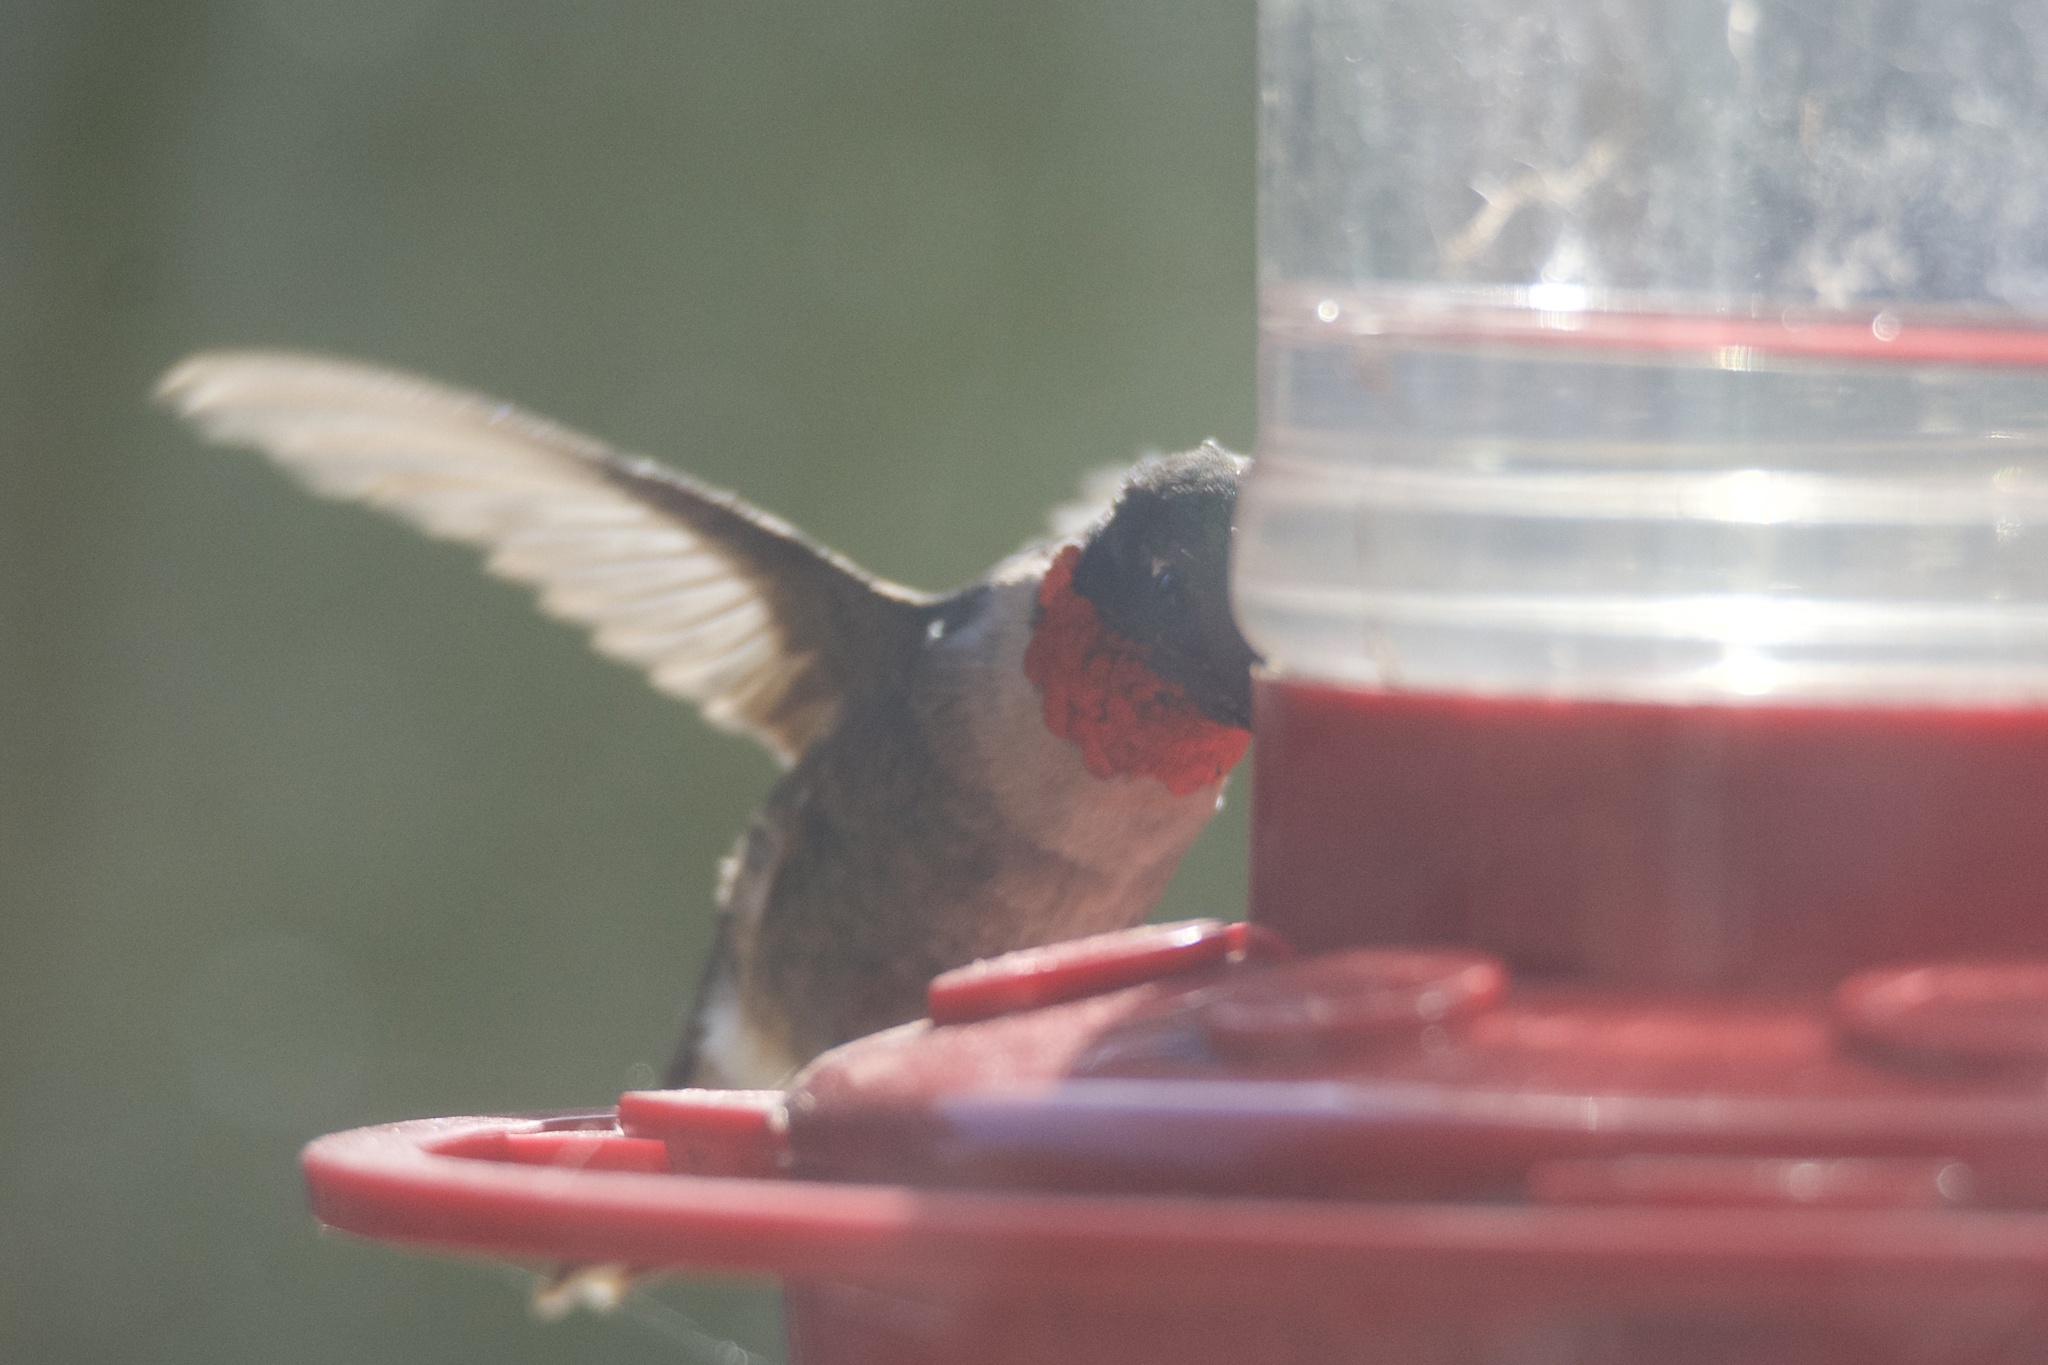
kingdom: Animalia
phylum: Chordata
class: Aves
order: Apodiformes
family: Trochilidae
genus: Archilochus
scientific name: Archilochus colubris
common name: Ruby-throated hummingbird
